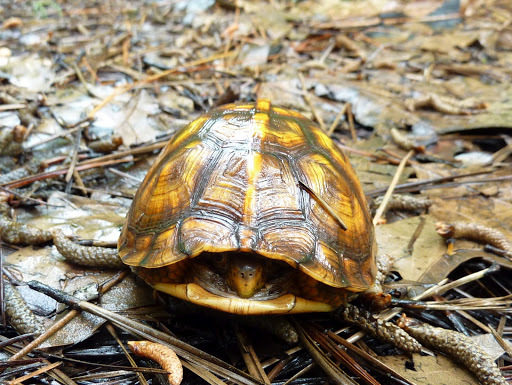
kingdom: Animalia
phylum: Chordata
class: Testudines
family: Emydidae
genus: Terrapene
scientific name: Terrapene carolina
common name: Common box turtle
